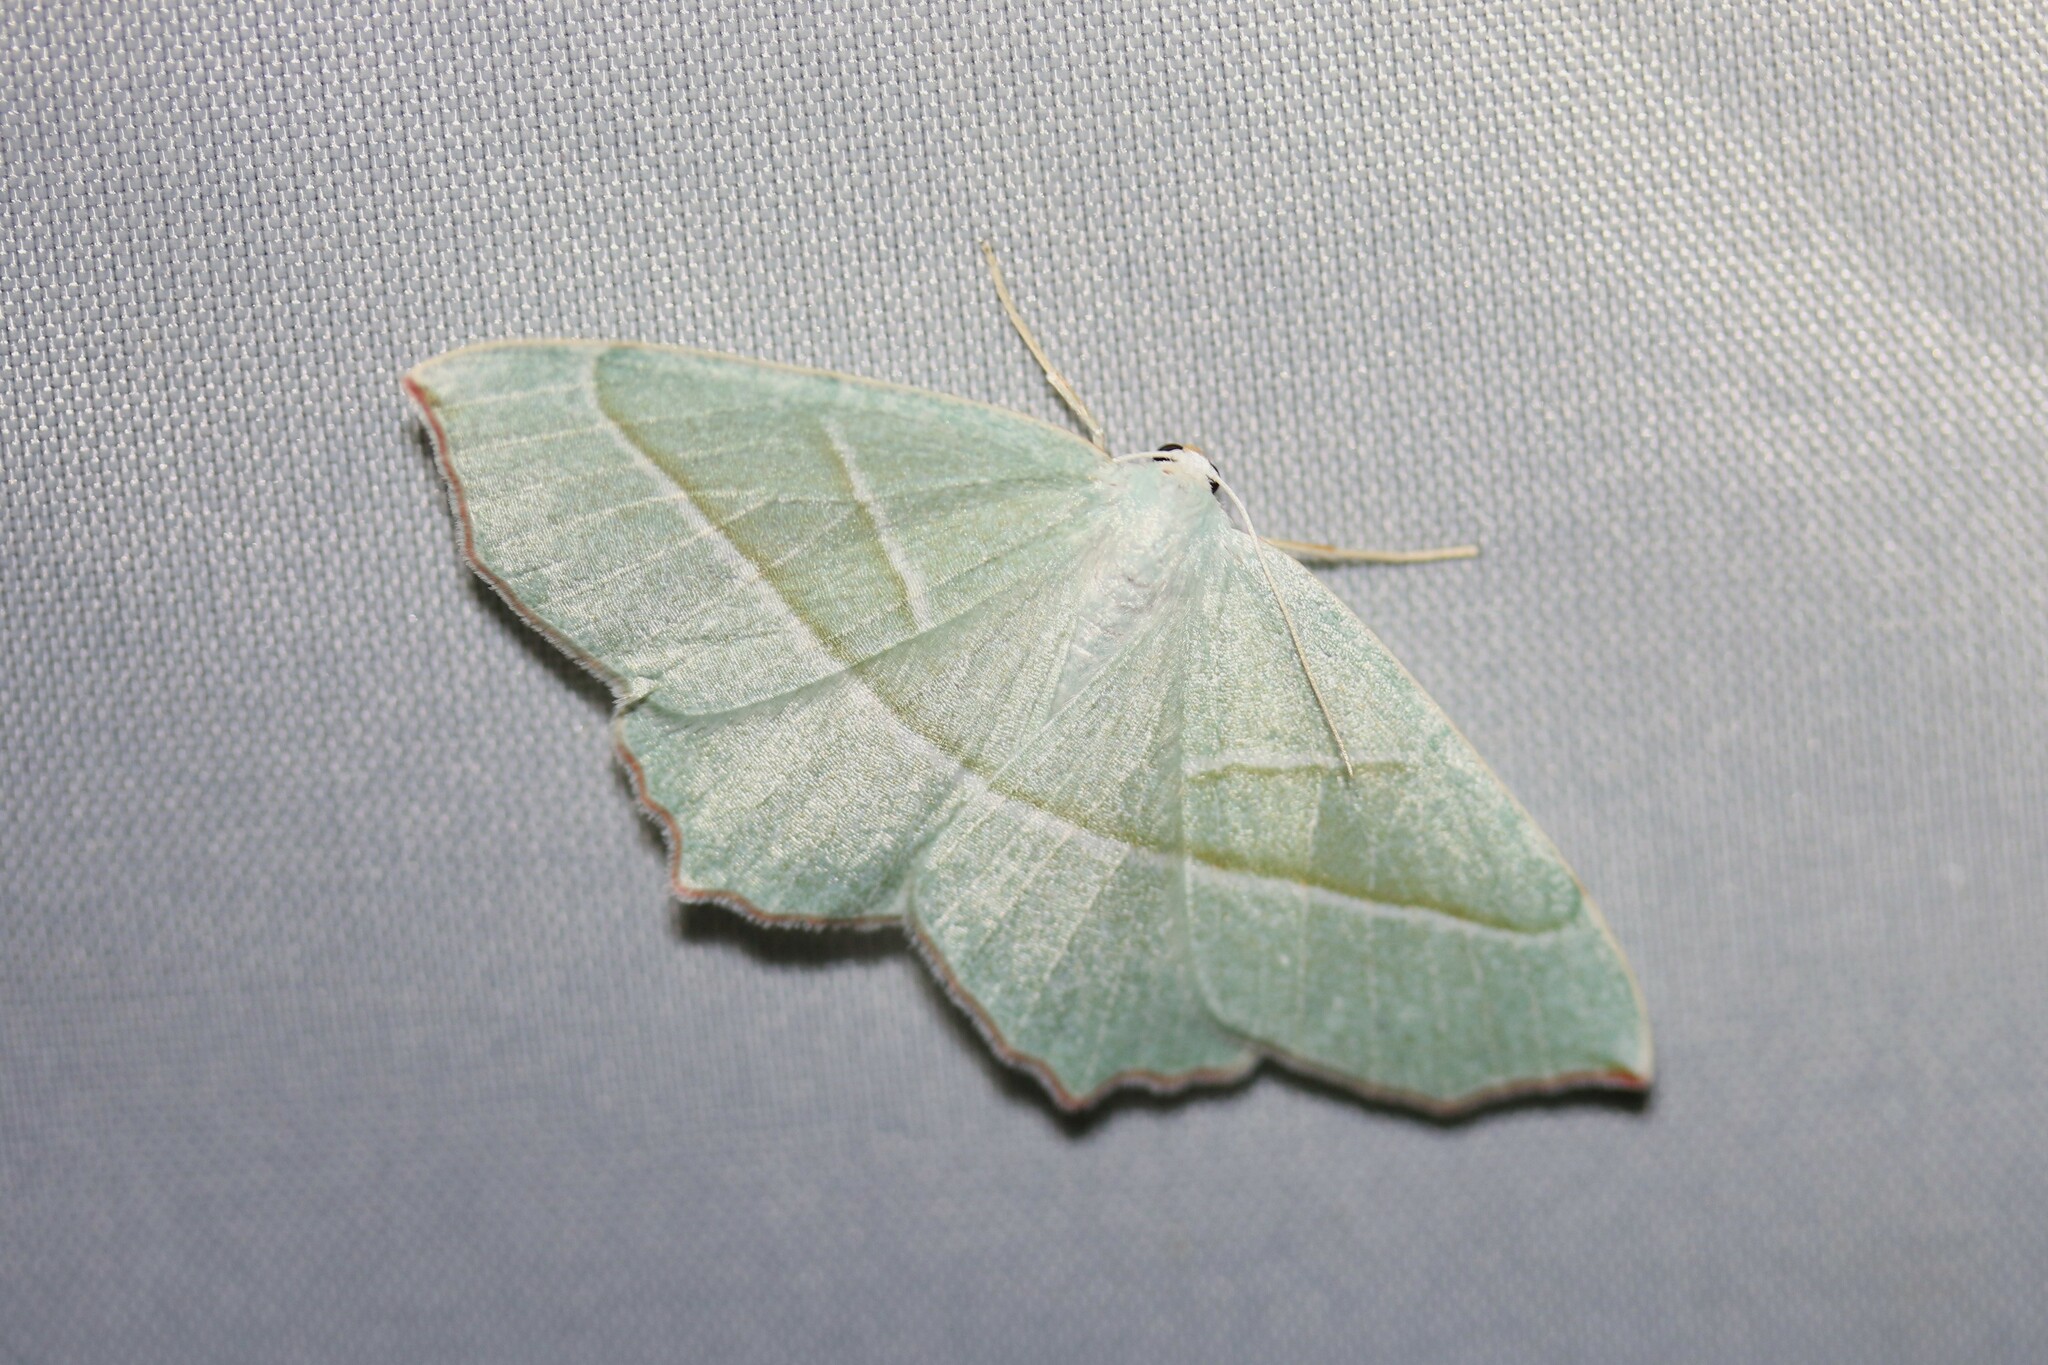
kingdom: Animalia
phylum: Arthropoda
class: Insecta
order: Lepidoptera
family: Geometridae
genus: Campaea
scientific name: Campaea margaritaria
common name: Light emerald
